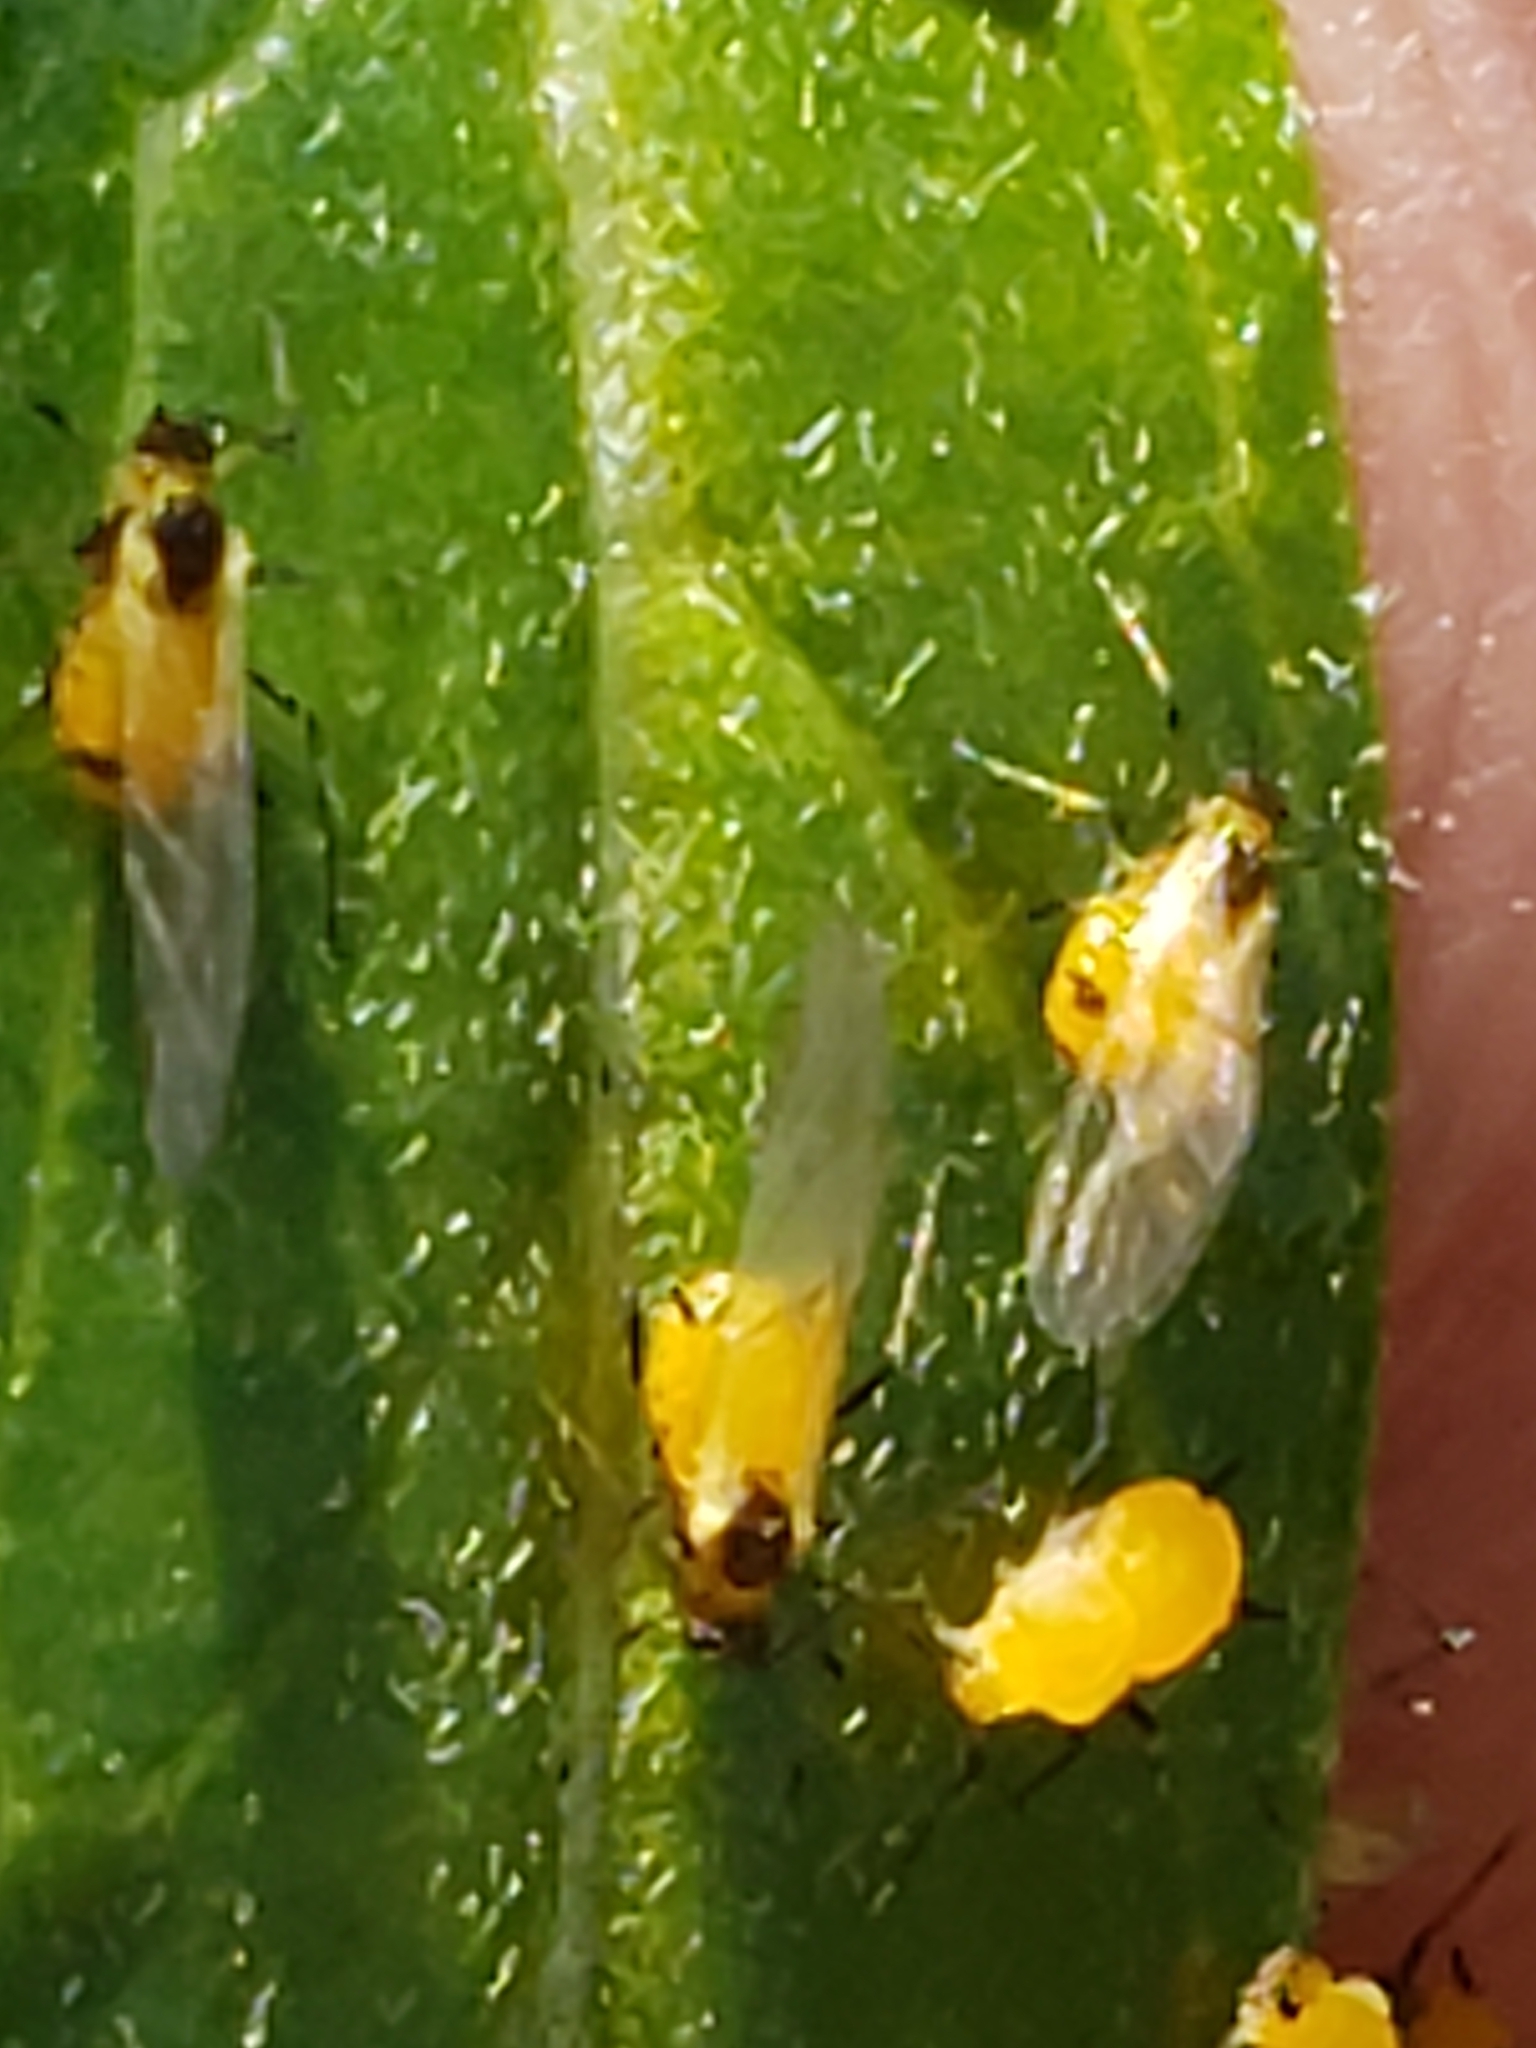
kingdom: Animalia
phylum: Arthropoda
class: Insecta
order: Hemiptera
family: Aphididae
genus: Aphis
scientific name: Aphis nerii
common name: Oleander aphid
